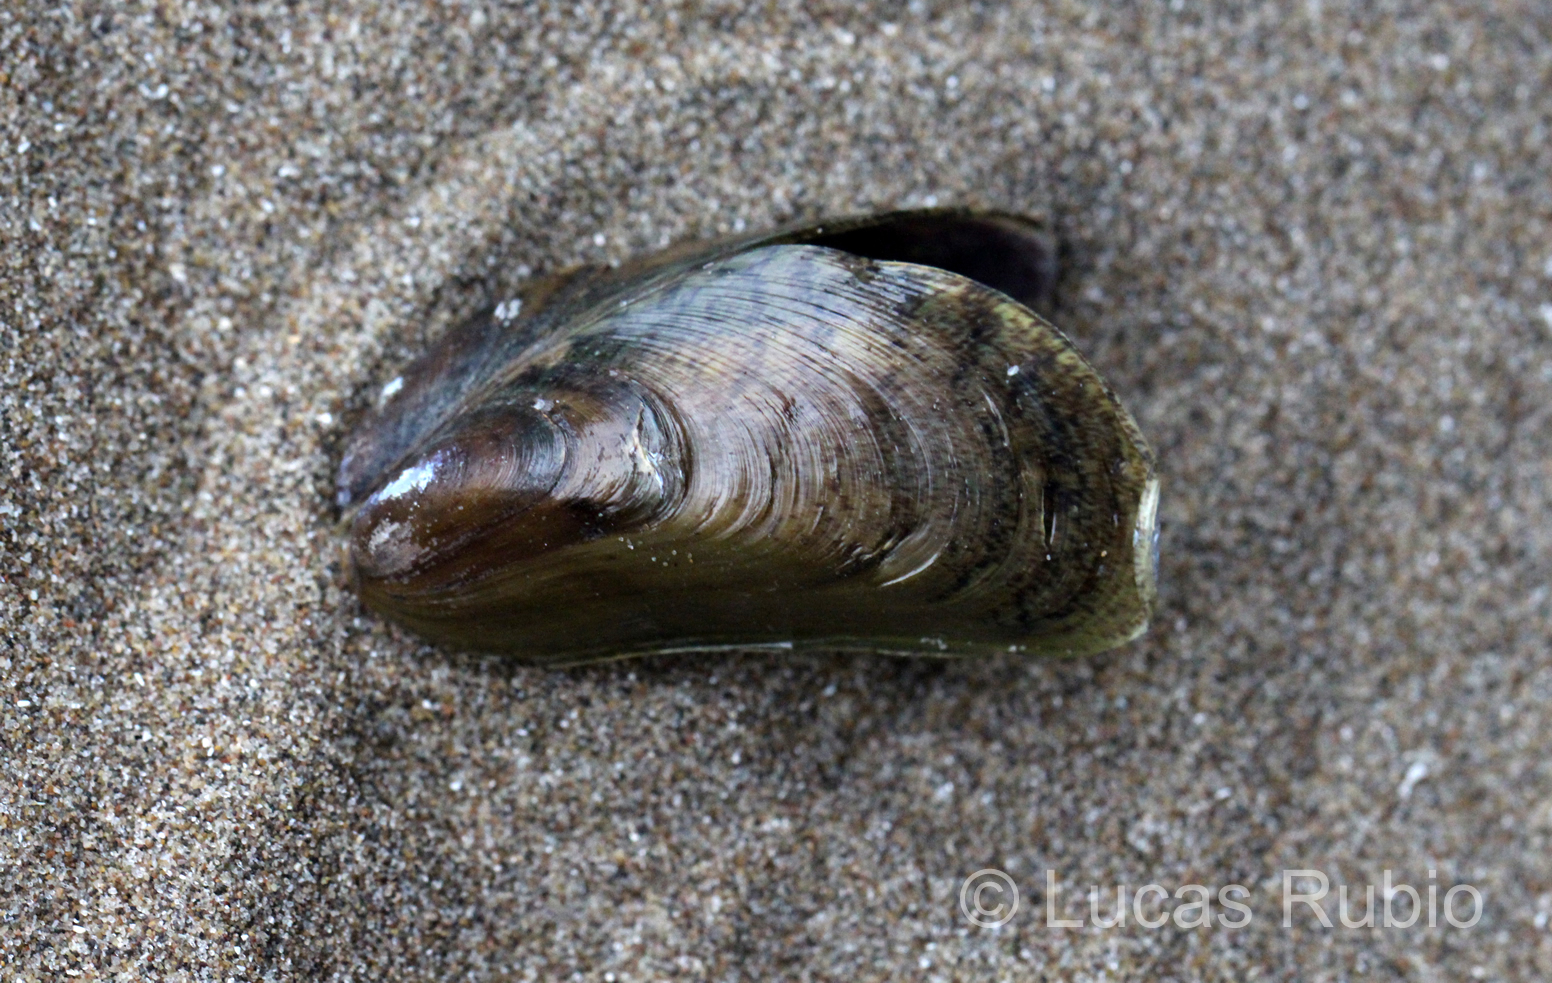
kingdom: Animalia
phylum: Mollusca
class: Bivalvia
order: Mytilida
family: Mytilidae
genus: Mytella
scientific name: Mytella strigata
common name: Charru mussel
